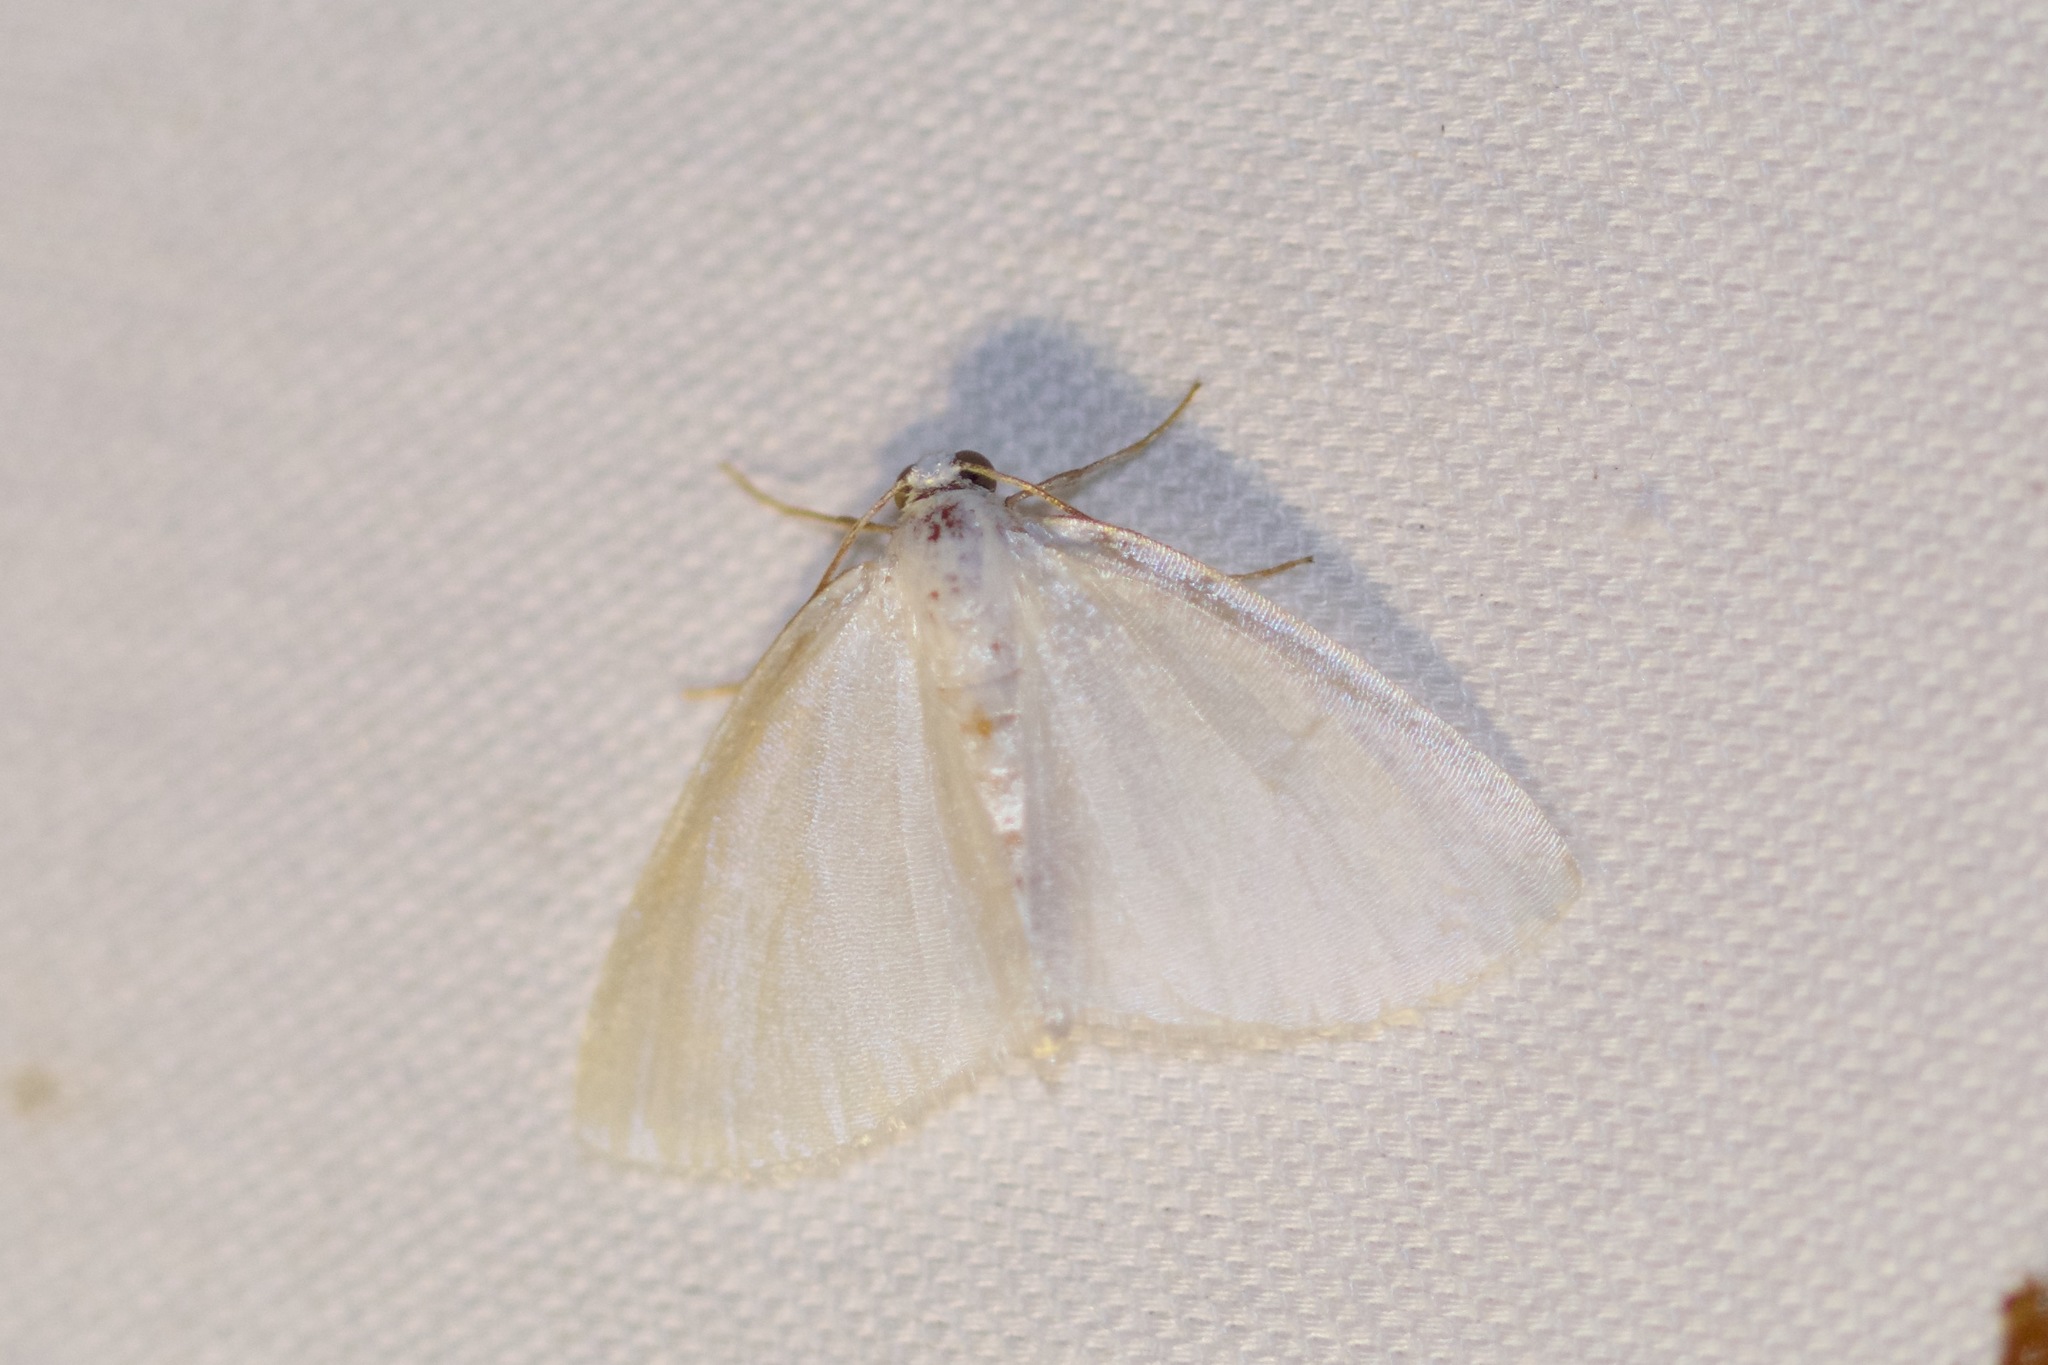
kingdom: Animalia
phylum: Arthropoda
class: Insecta
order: Lepidoptera
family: Geometridae
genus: Lomographa
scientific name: Lomographa vestaliata
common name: White spring moth
